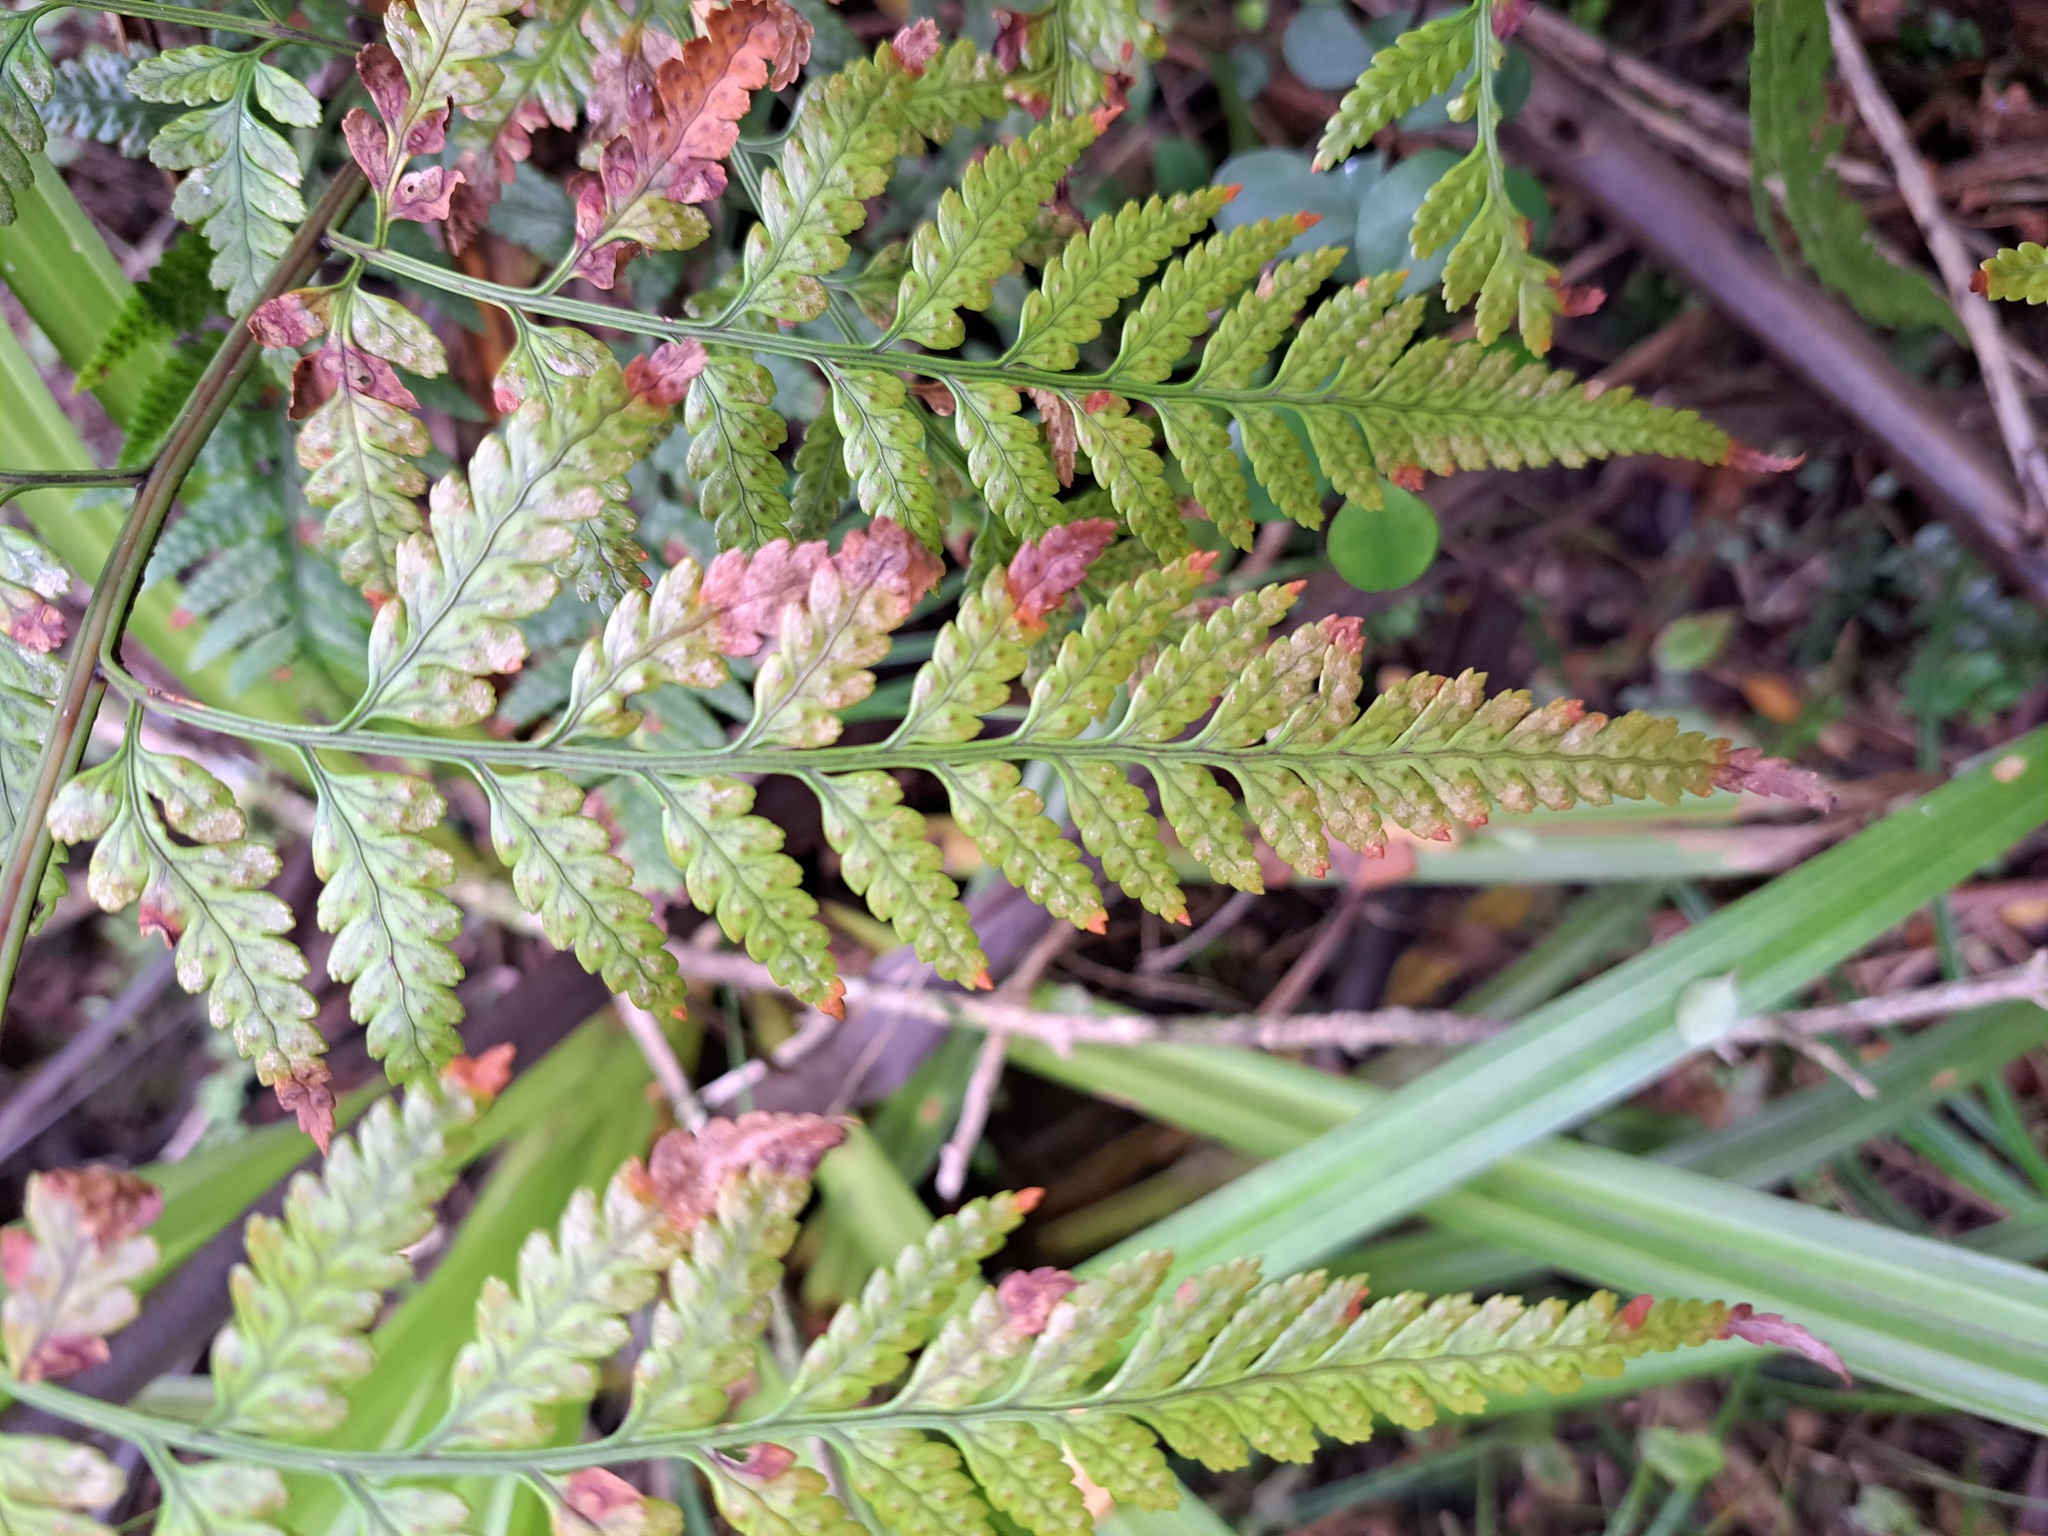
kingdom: Plantae
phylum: Tracheophyta
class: Polypodiopsida
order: Polypodiales
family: Dryopteridaceae
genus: Rumohra
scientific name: Rumohra adiantiformis
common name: Leather fern
